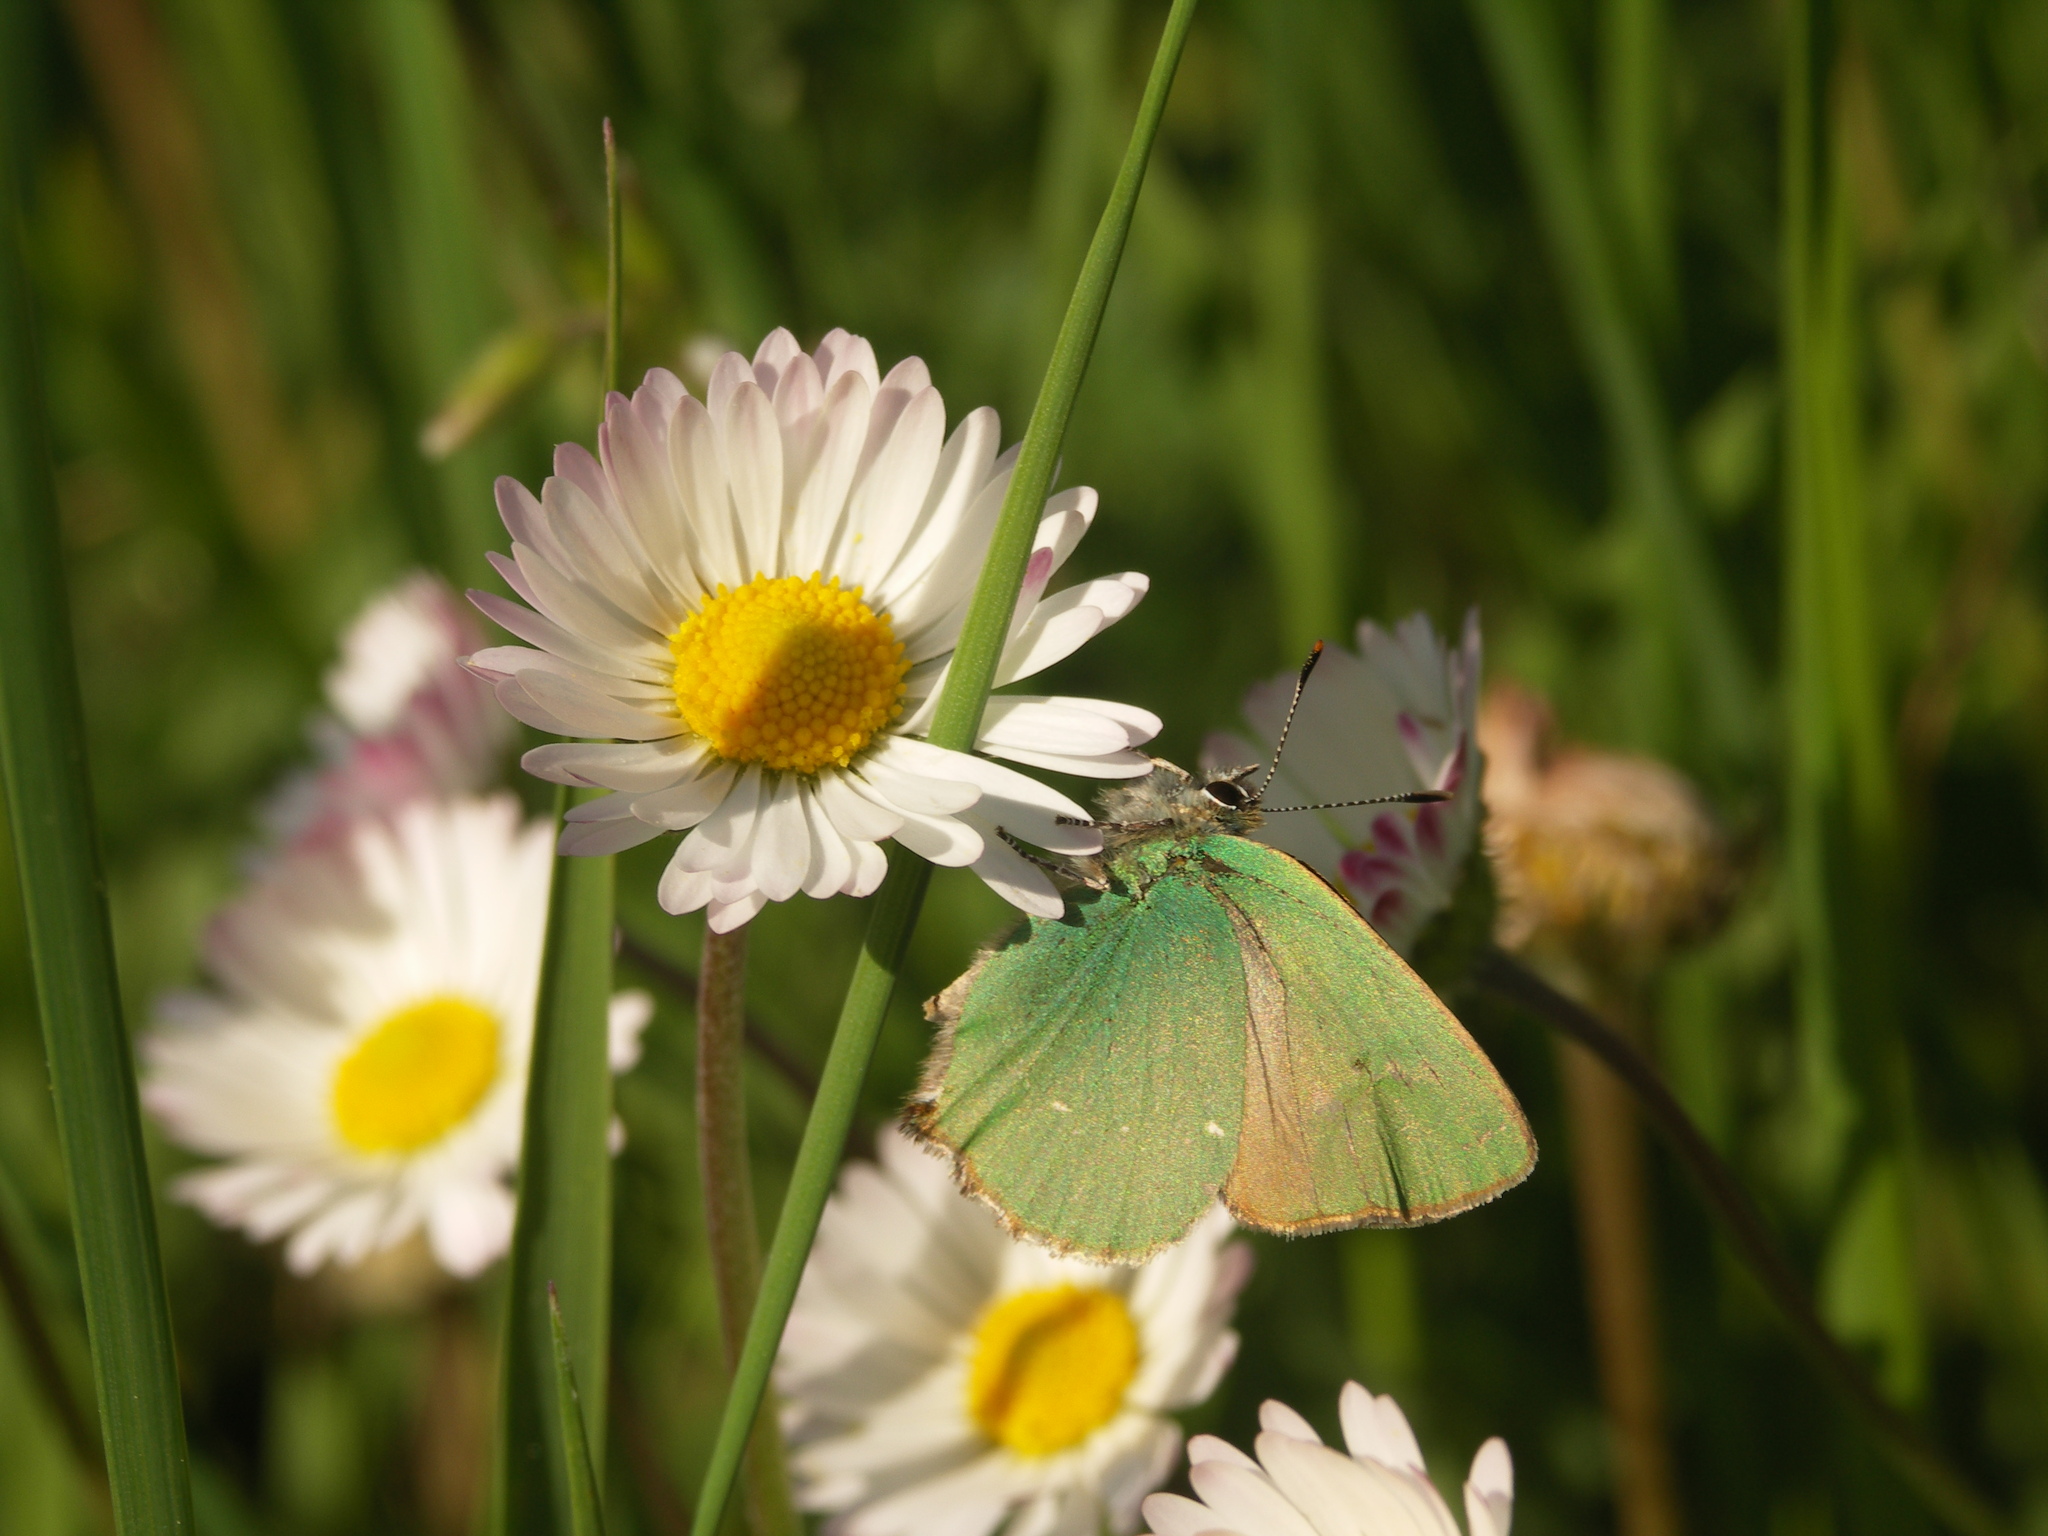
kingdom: Animalia
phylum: Arthropoda
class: Insecta
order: Lepidoptera
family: Lycaenidae
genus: Callophrys
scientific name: Callophrys rubi
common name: Green hairstreak
